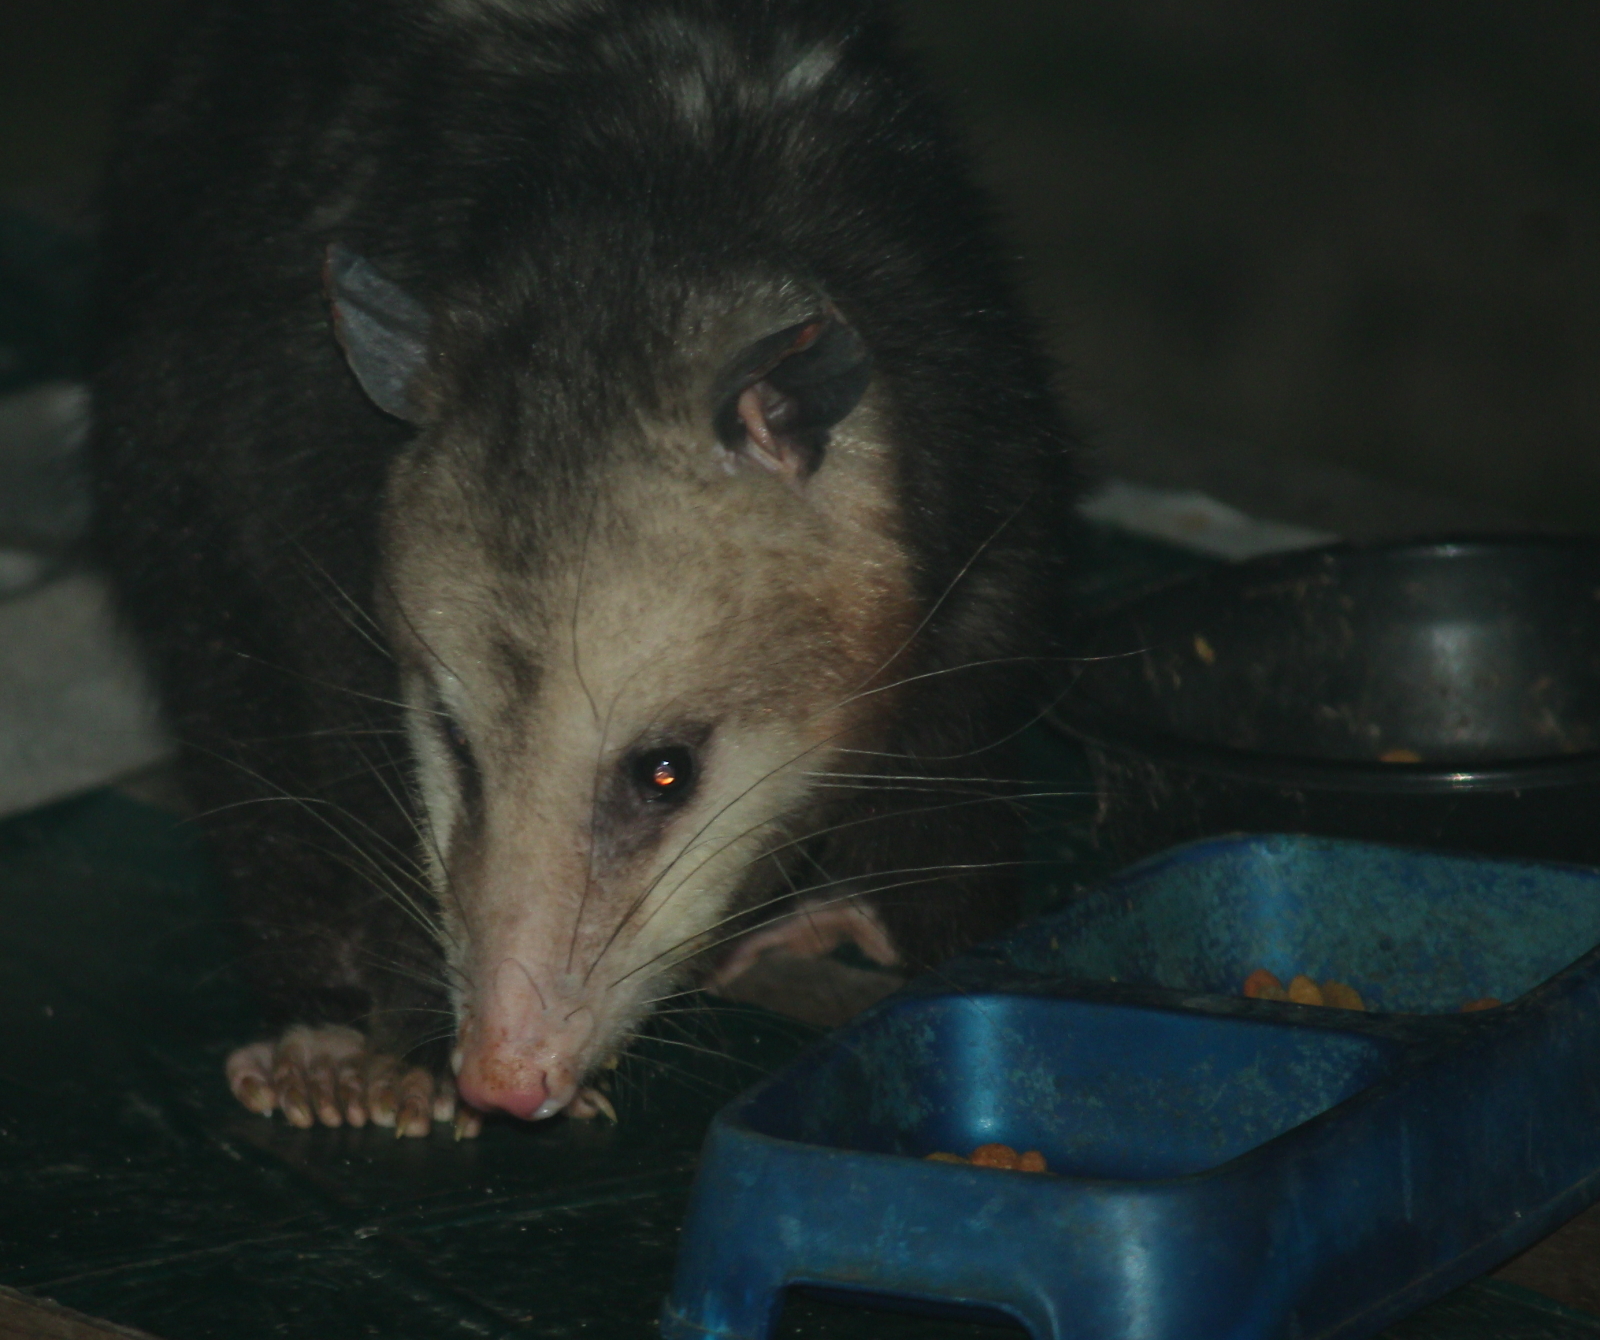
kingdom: Animalia
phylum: Chordata
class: Mammalia
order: Didelphimorphia
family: Didelphidae
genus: Didelphis
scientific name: Didelphis virginiana
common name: Virginia opossum
